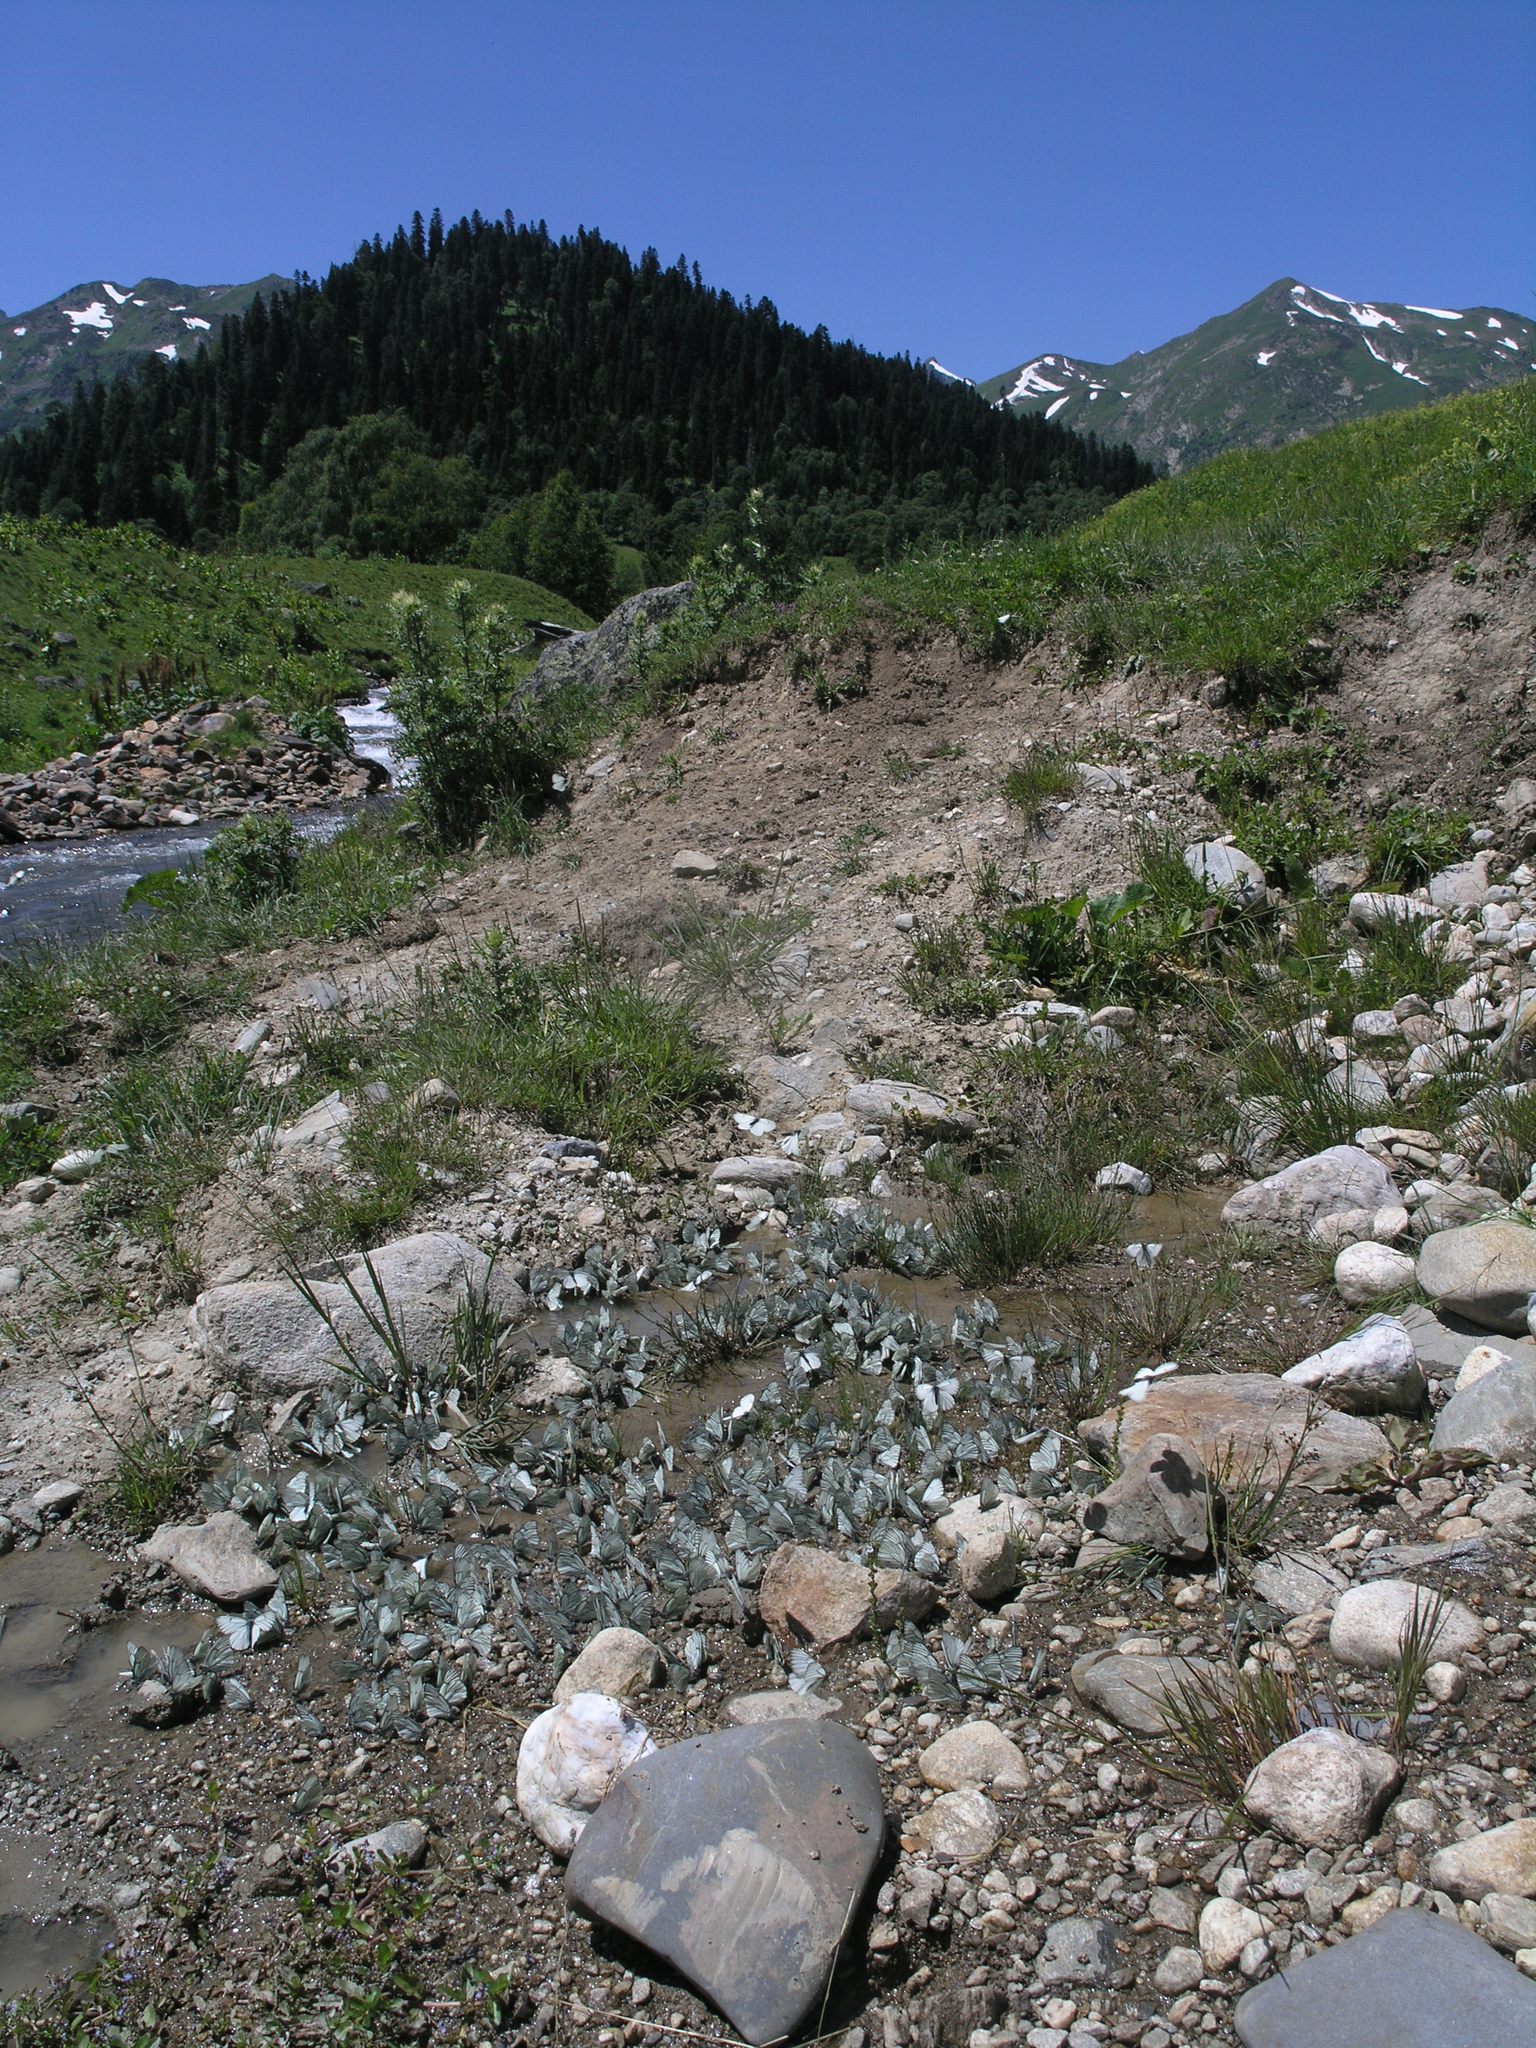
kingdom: Animalia
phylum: Arthropoda
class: Insecta
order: Lepidoptera
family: Pieridae
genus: Aporia
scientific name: Aporia crataegi
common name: Black-veined white
